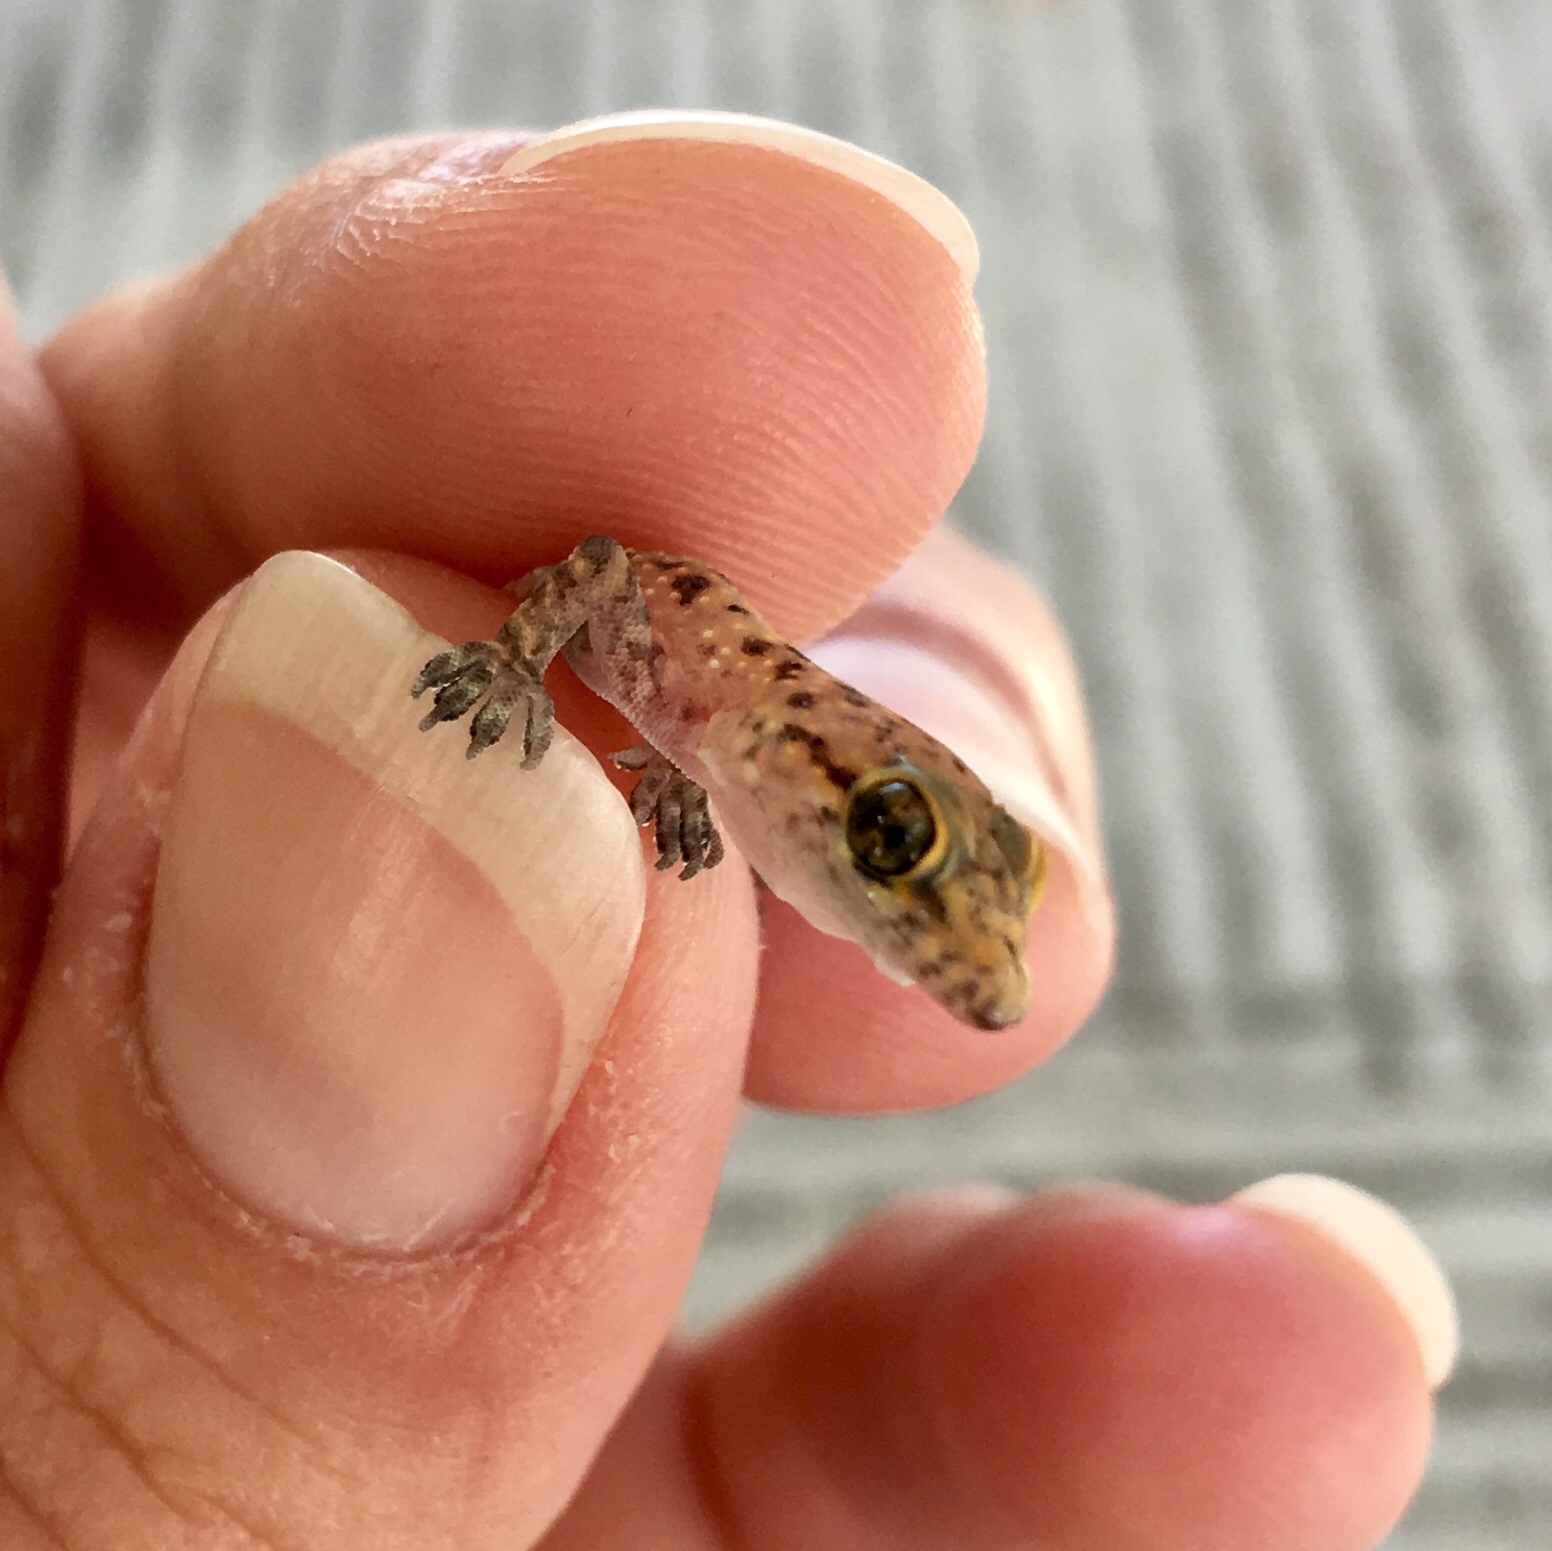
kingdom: Animalia
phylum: Chordata
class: Squamata
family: Gekkonidae
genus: Hemidactylus
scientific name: Hemidactylus turcicus
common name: Turkish gecko
